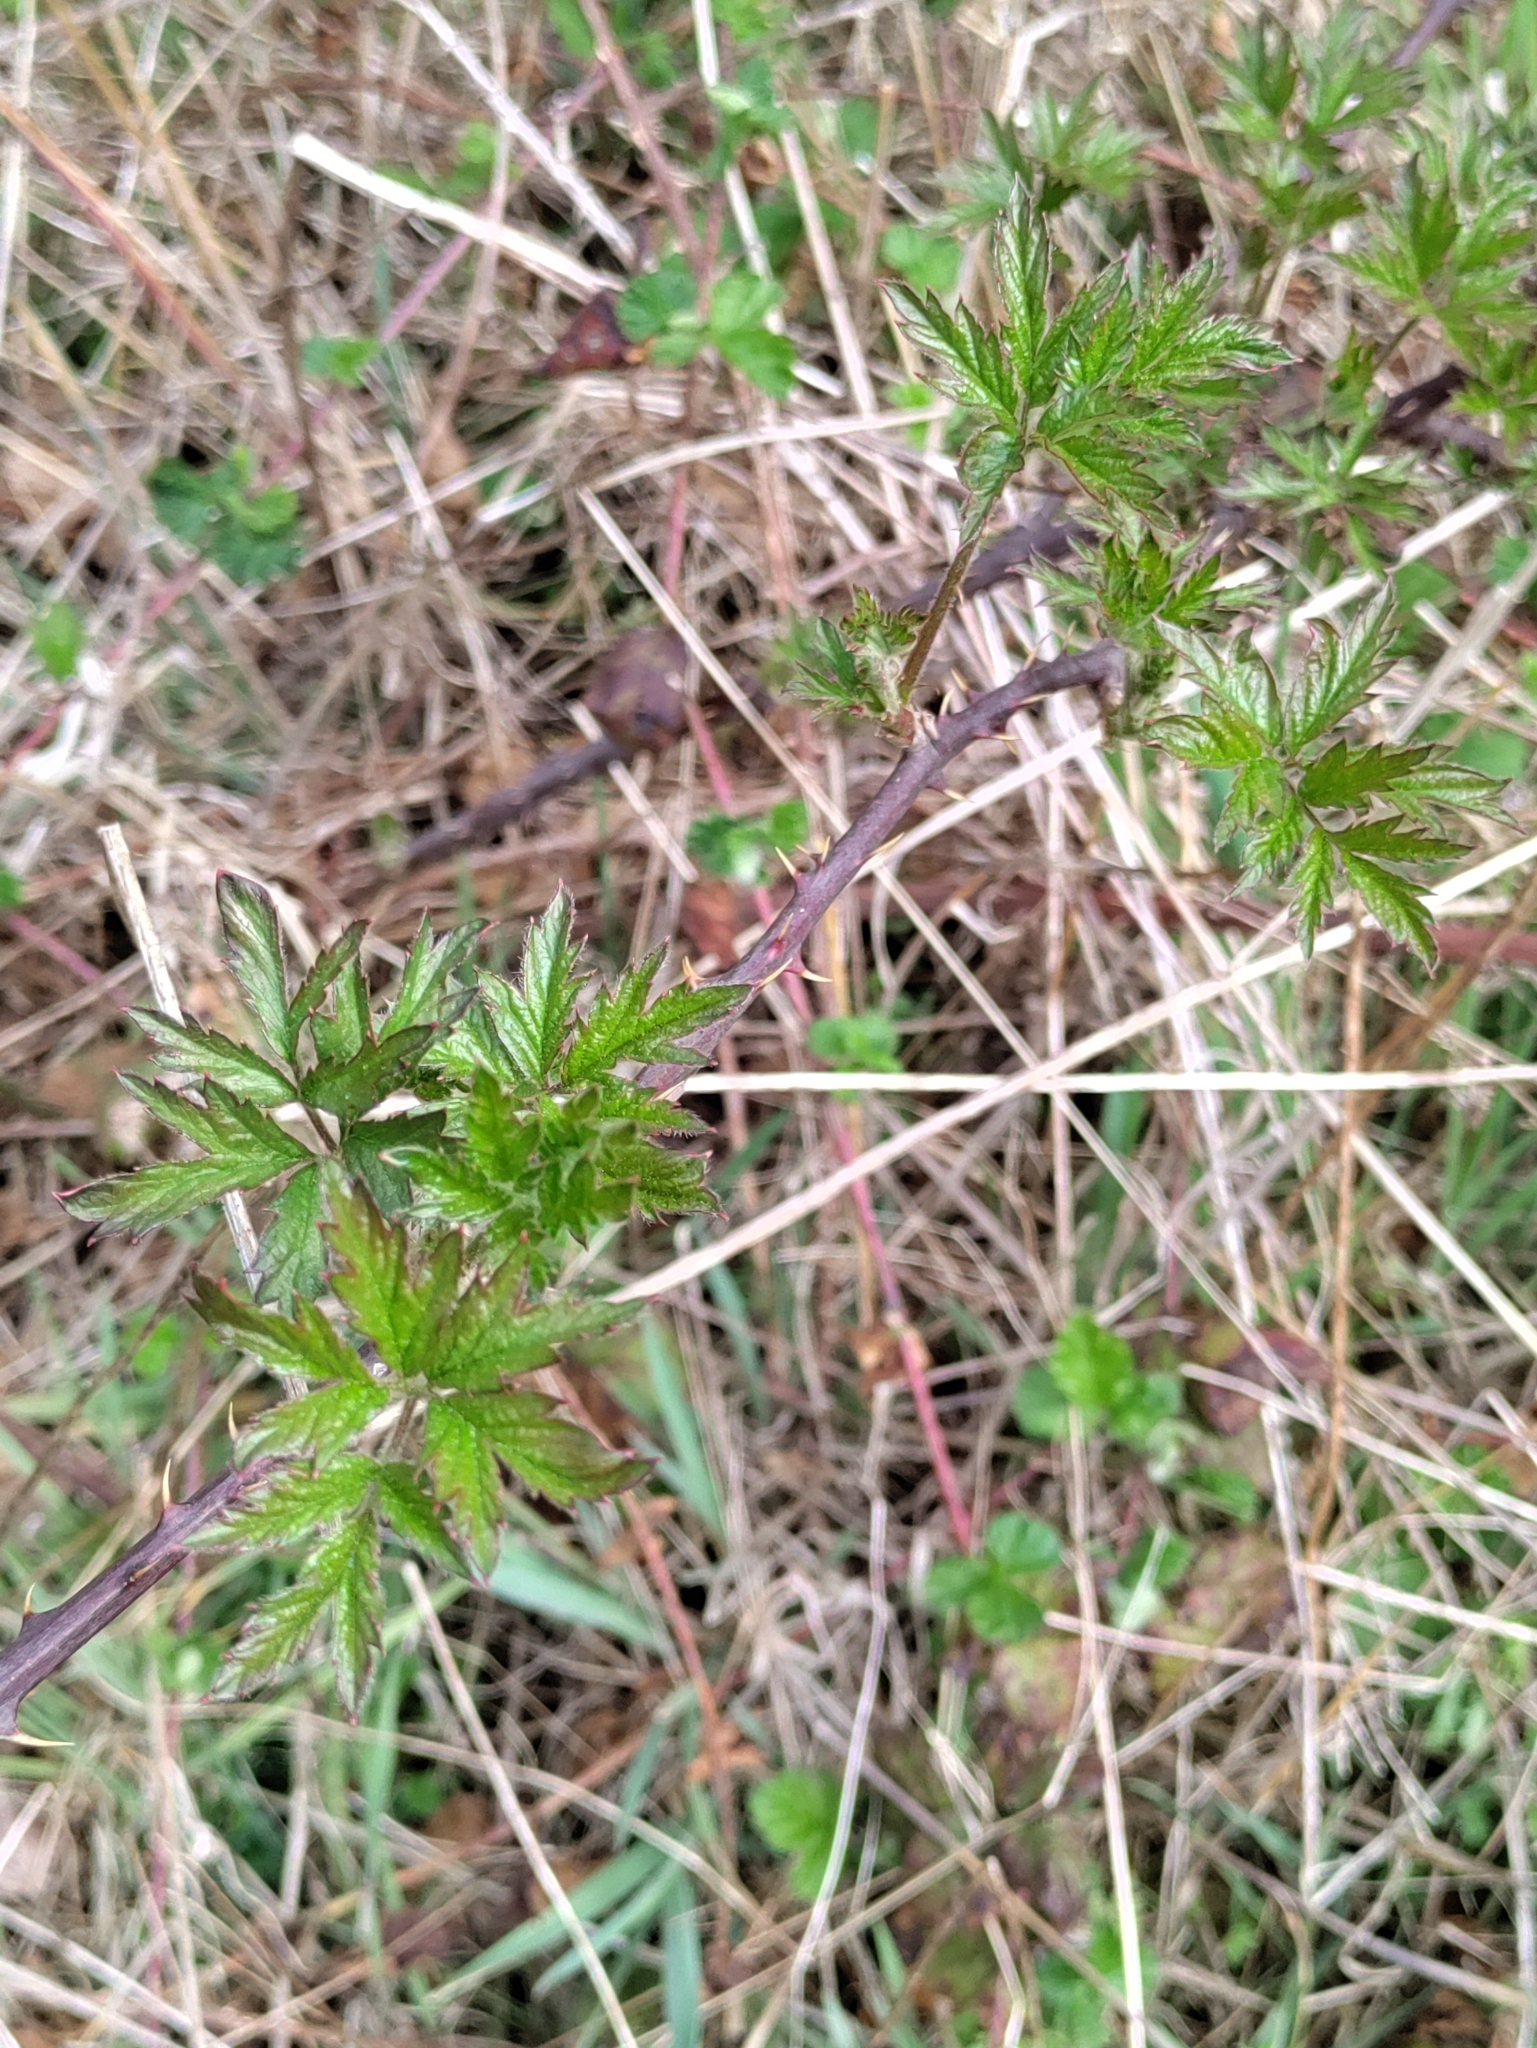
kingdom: Plantae
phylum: Tracheophyta
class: Magnoliopsida
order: Rosales
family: Rosaceae
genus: Rubus
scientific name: Rubus laciniatus
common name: Evergreen blackberry
